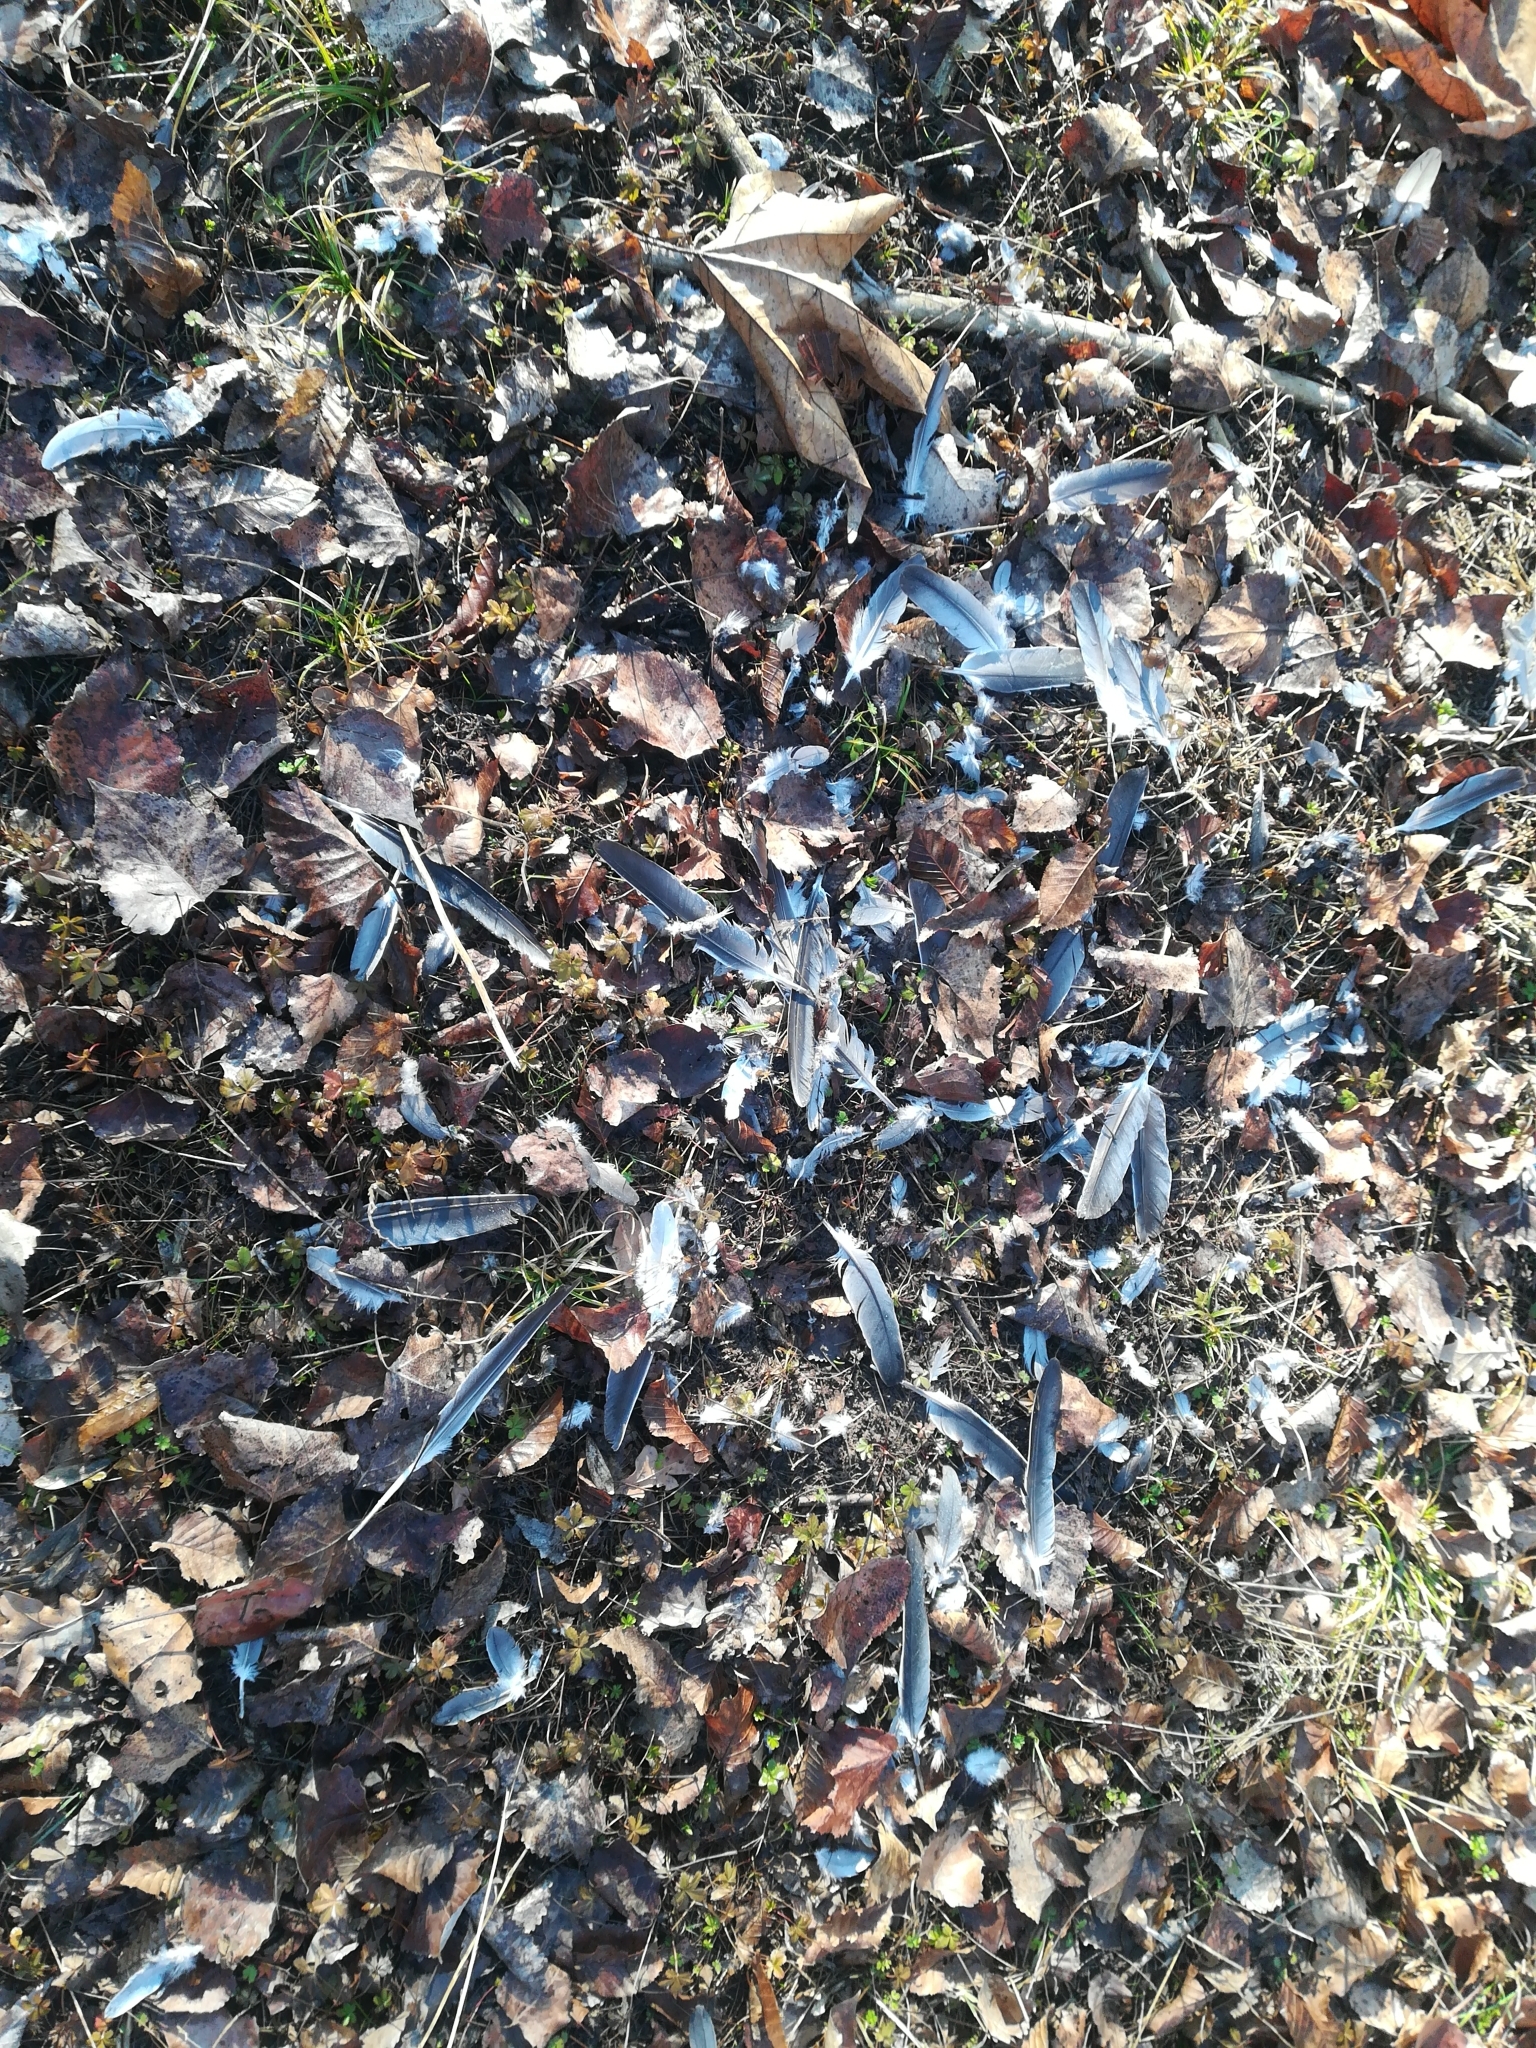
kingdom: Animalia
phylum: Chordata
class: Aves
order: Columbiformes
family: Columbidae
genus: Columba
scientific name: Columba palumbus
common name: Common wood pigeon
